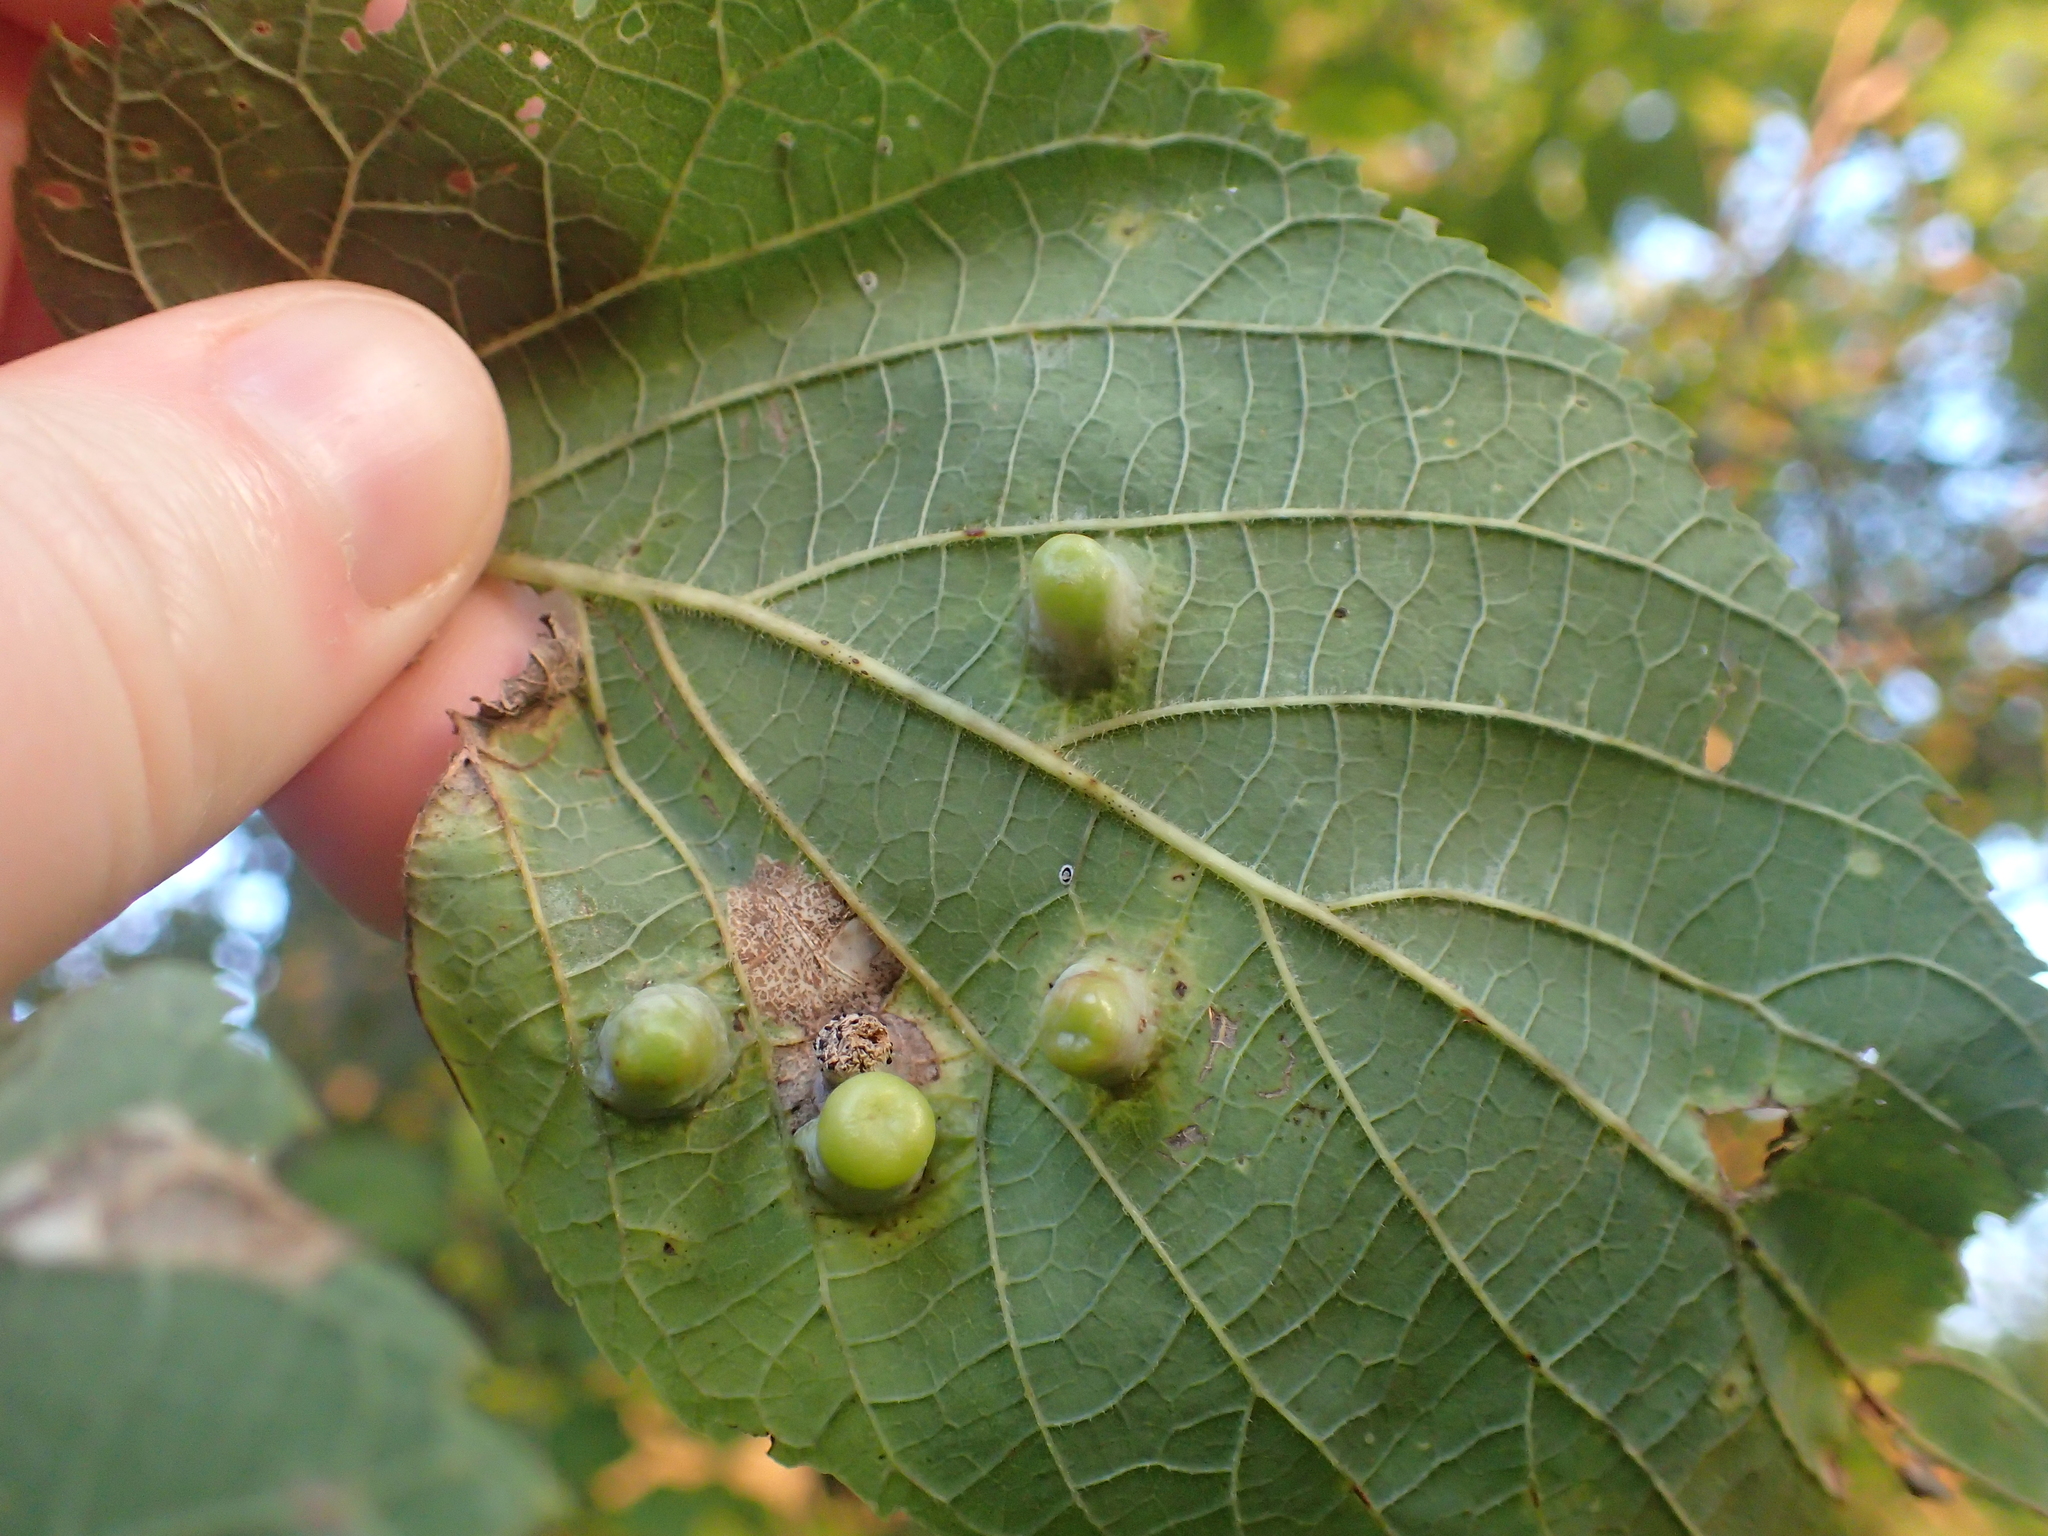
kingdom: Animalia
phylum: Arthropoda
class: Insecta
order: Hemiptera
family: Aphalaridae
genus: Pachypsylla
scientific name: Pachypsylla celtidismamma
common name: Hackberry nipplegall psyllid
